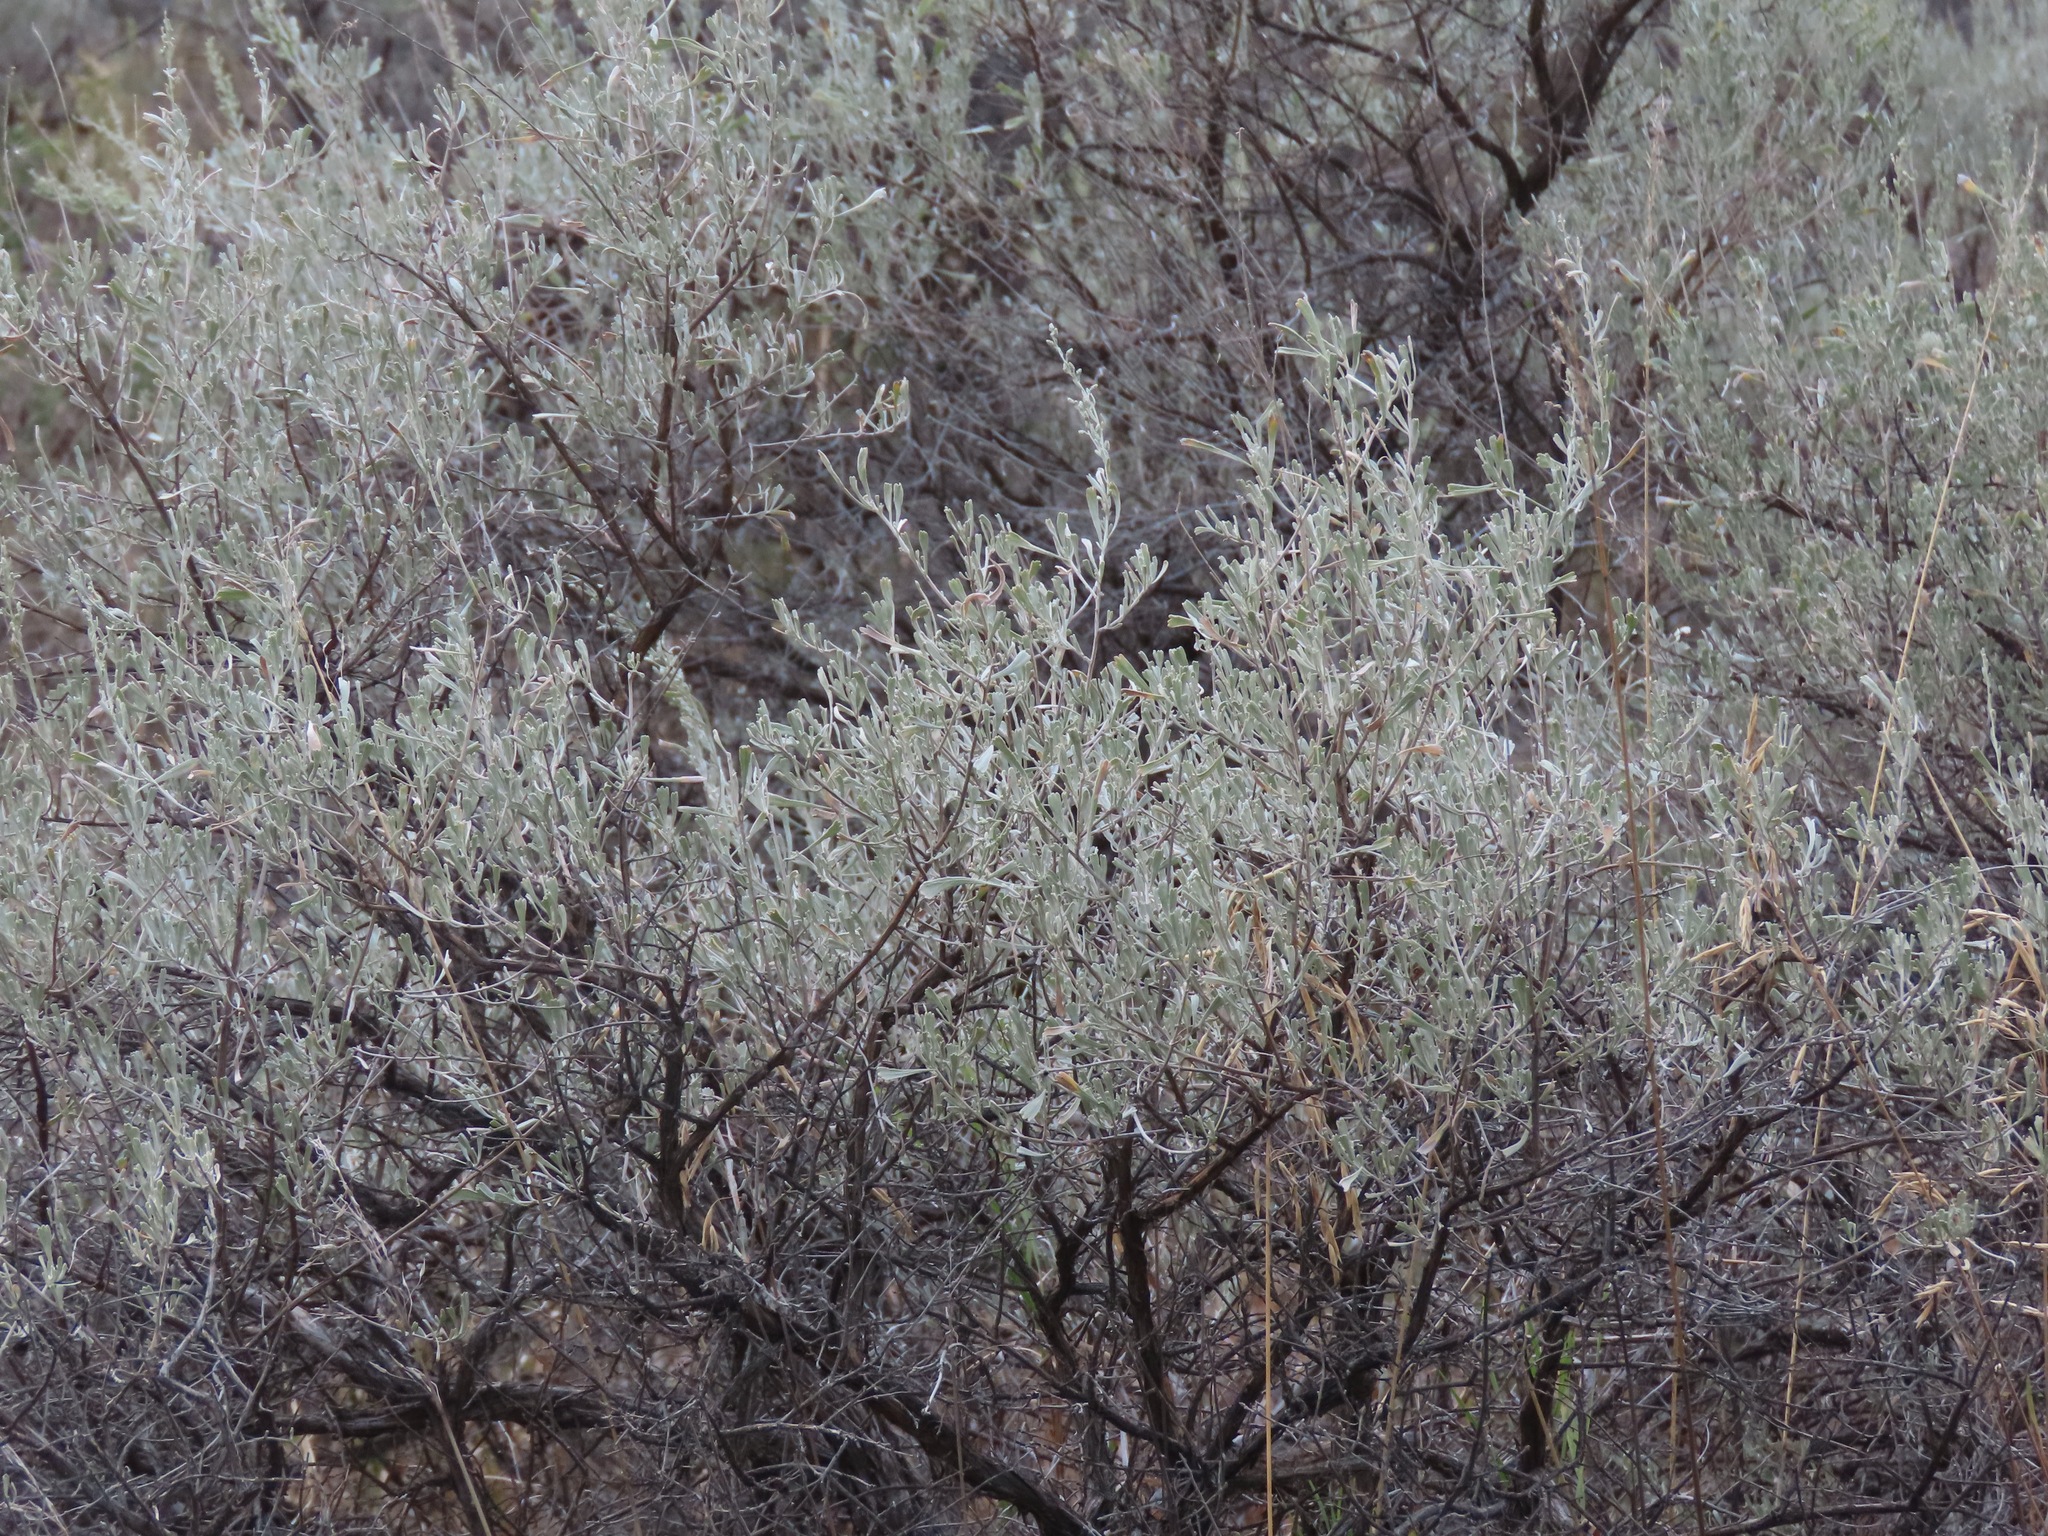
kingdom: Plantae
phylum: Tracheophyta
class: Magnoliopsida
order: Asterales
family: Asteraceae
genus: Artemisia
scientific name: Artemisia tridentata
